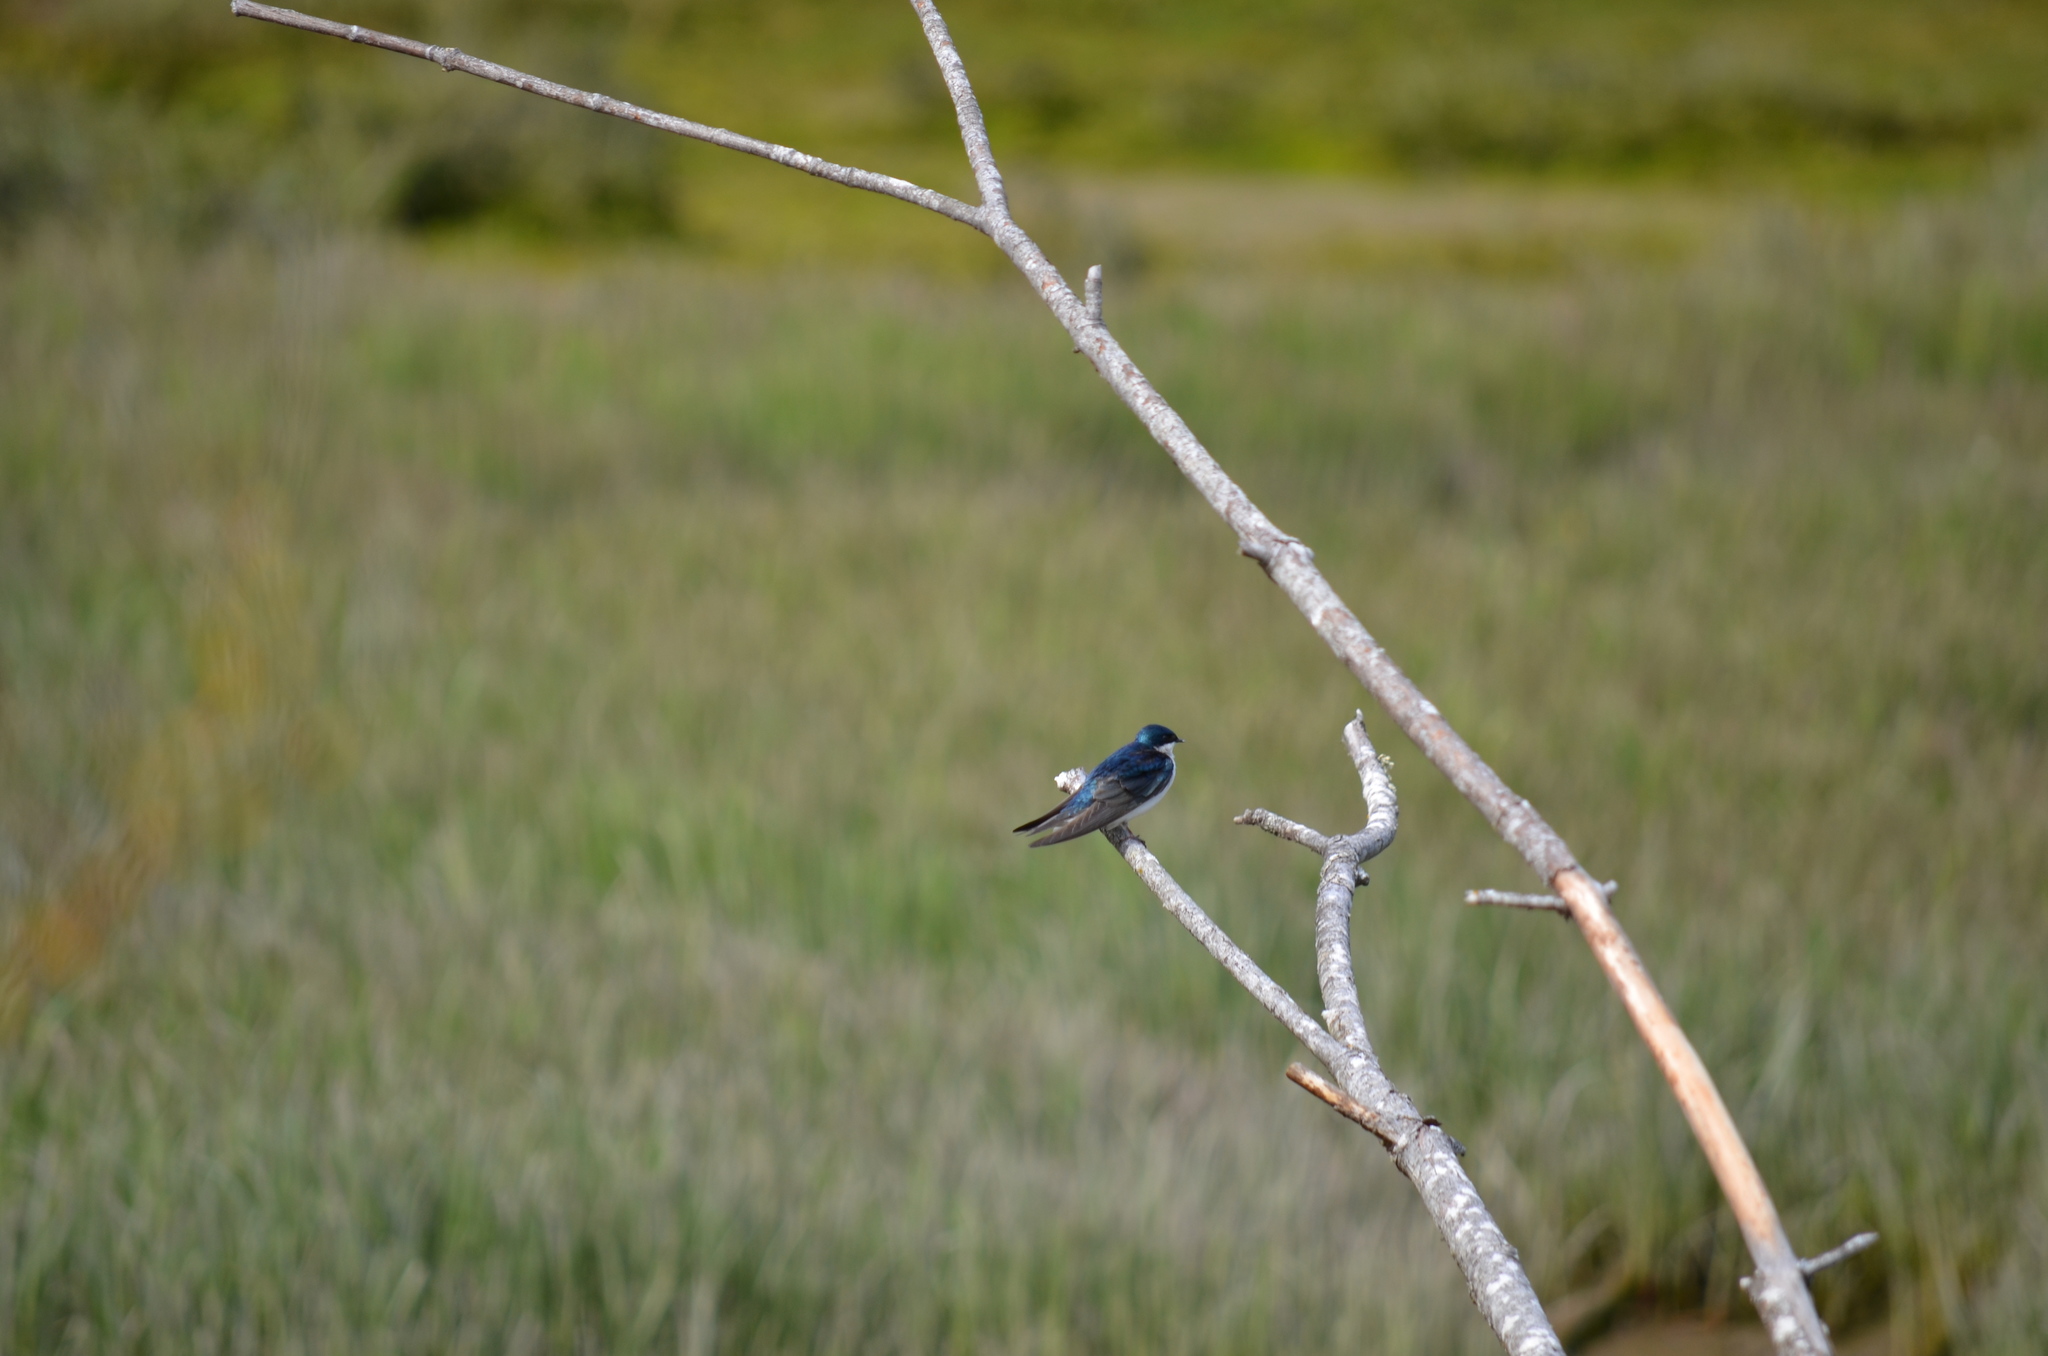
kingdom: Animalia
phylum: Chordata
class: Aves
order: Passeriformes
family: Hirundinidae
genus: Tachycineta
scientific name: Tachycineta bicolor
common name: Tree swallow
